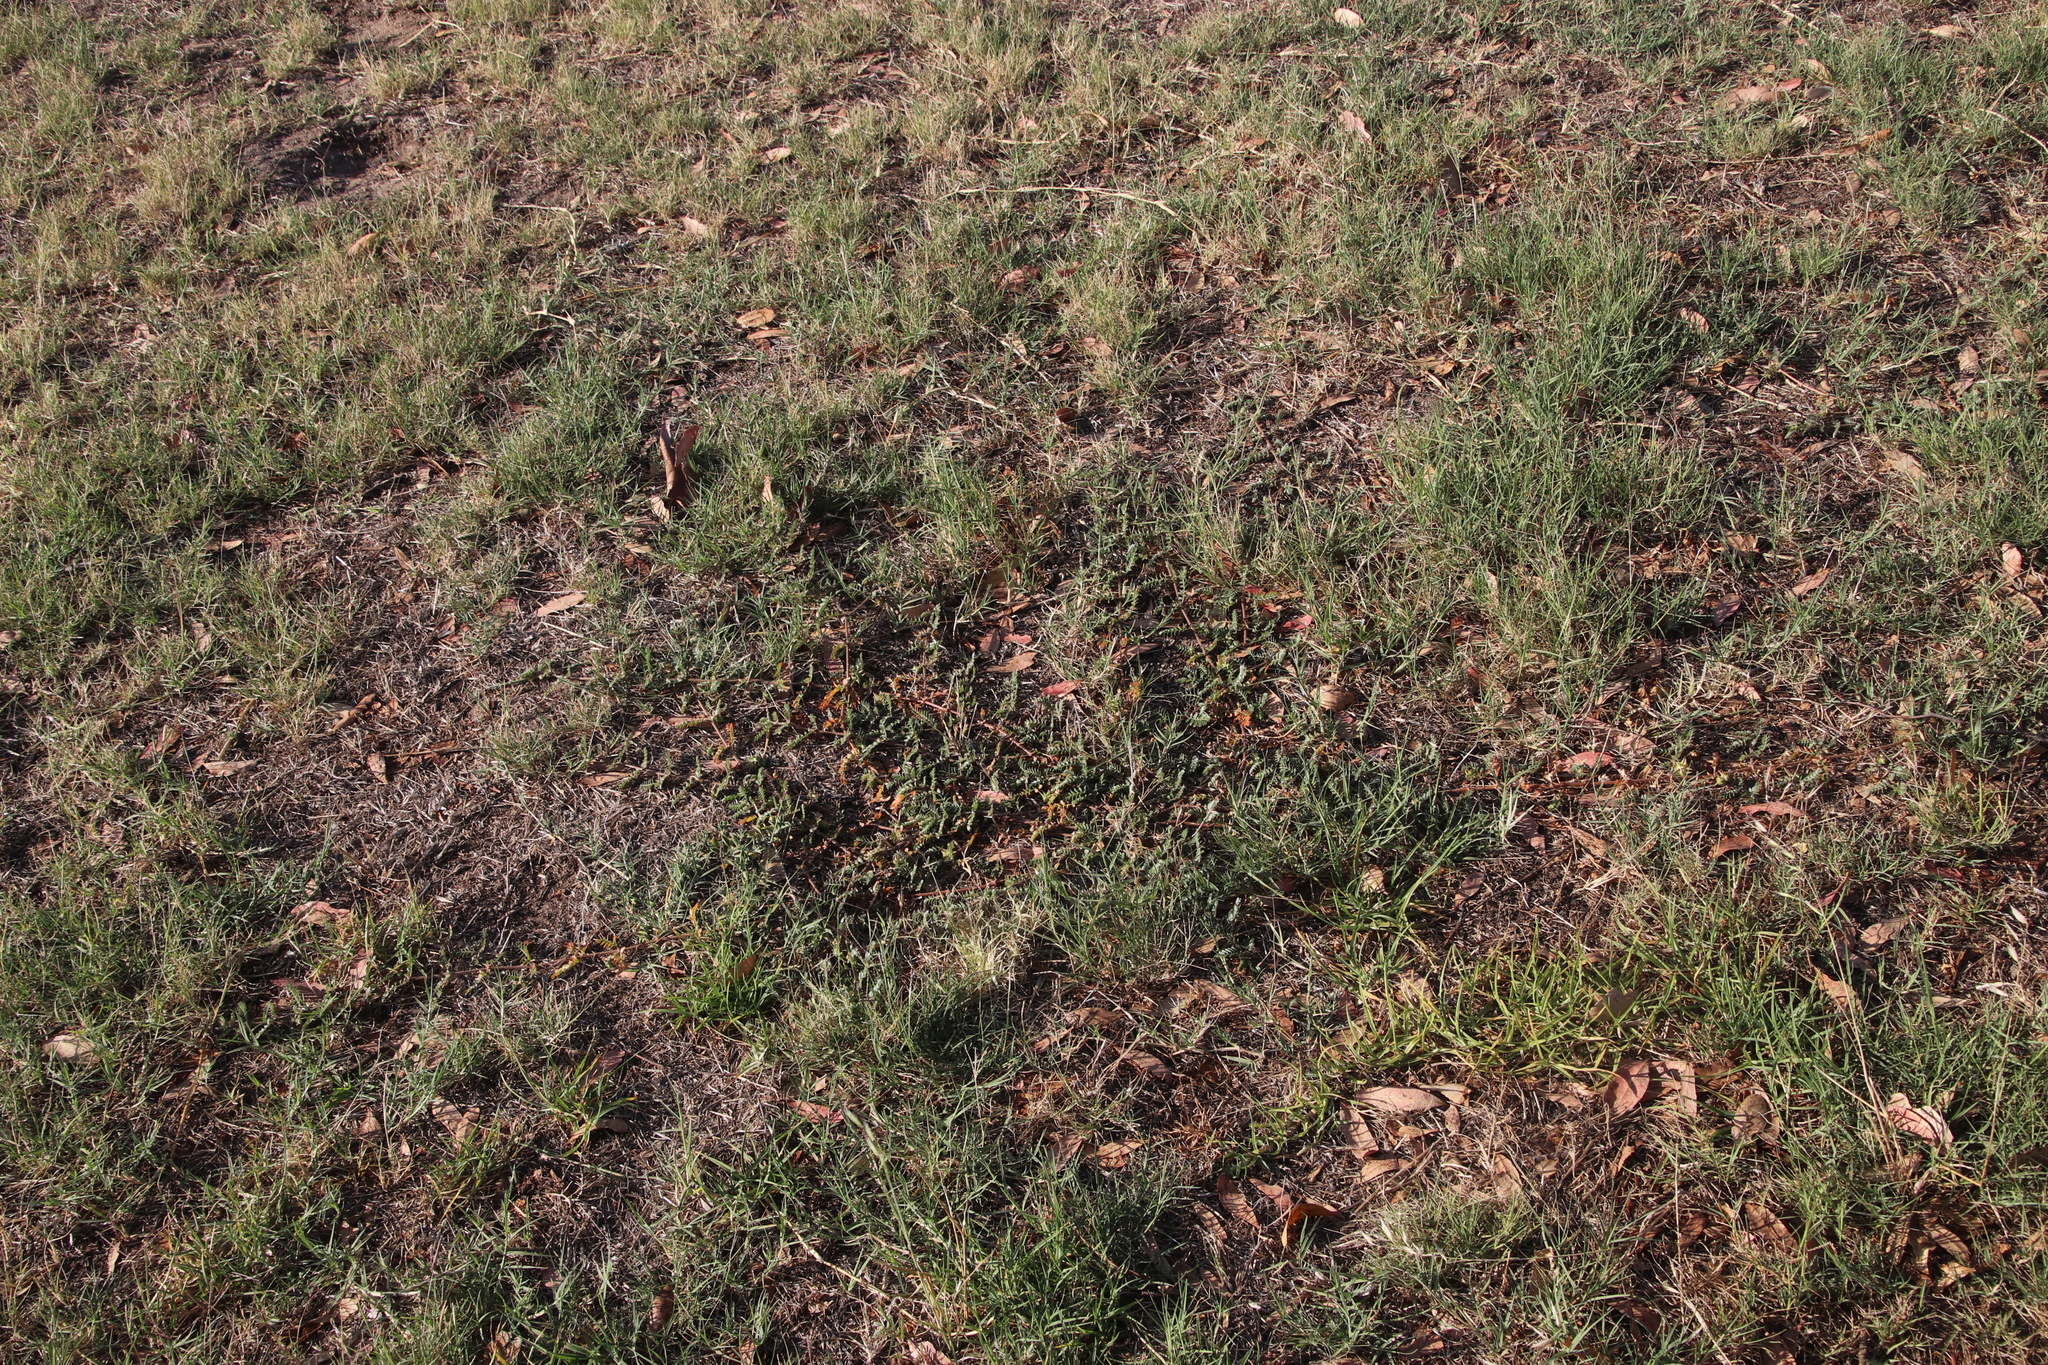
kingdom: Plantae
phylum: Tracheophyta
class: Magnoliopsida
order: Zygophyllales
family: Zygophyllaceae
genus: Tribulus
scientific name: Tribulus terrestris
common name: Puncturevine
